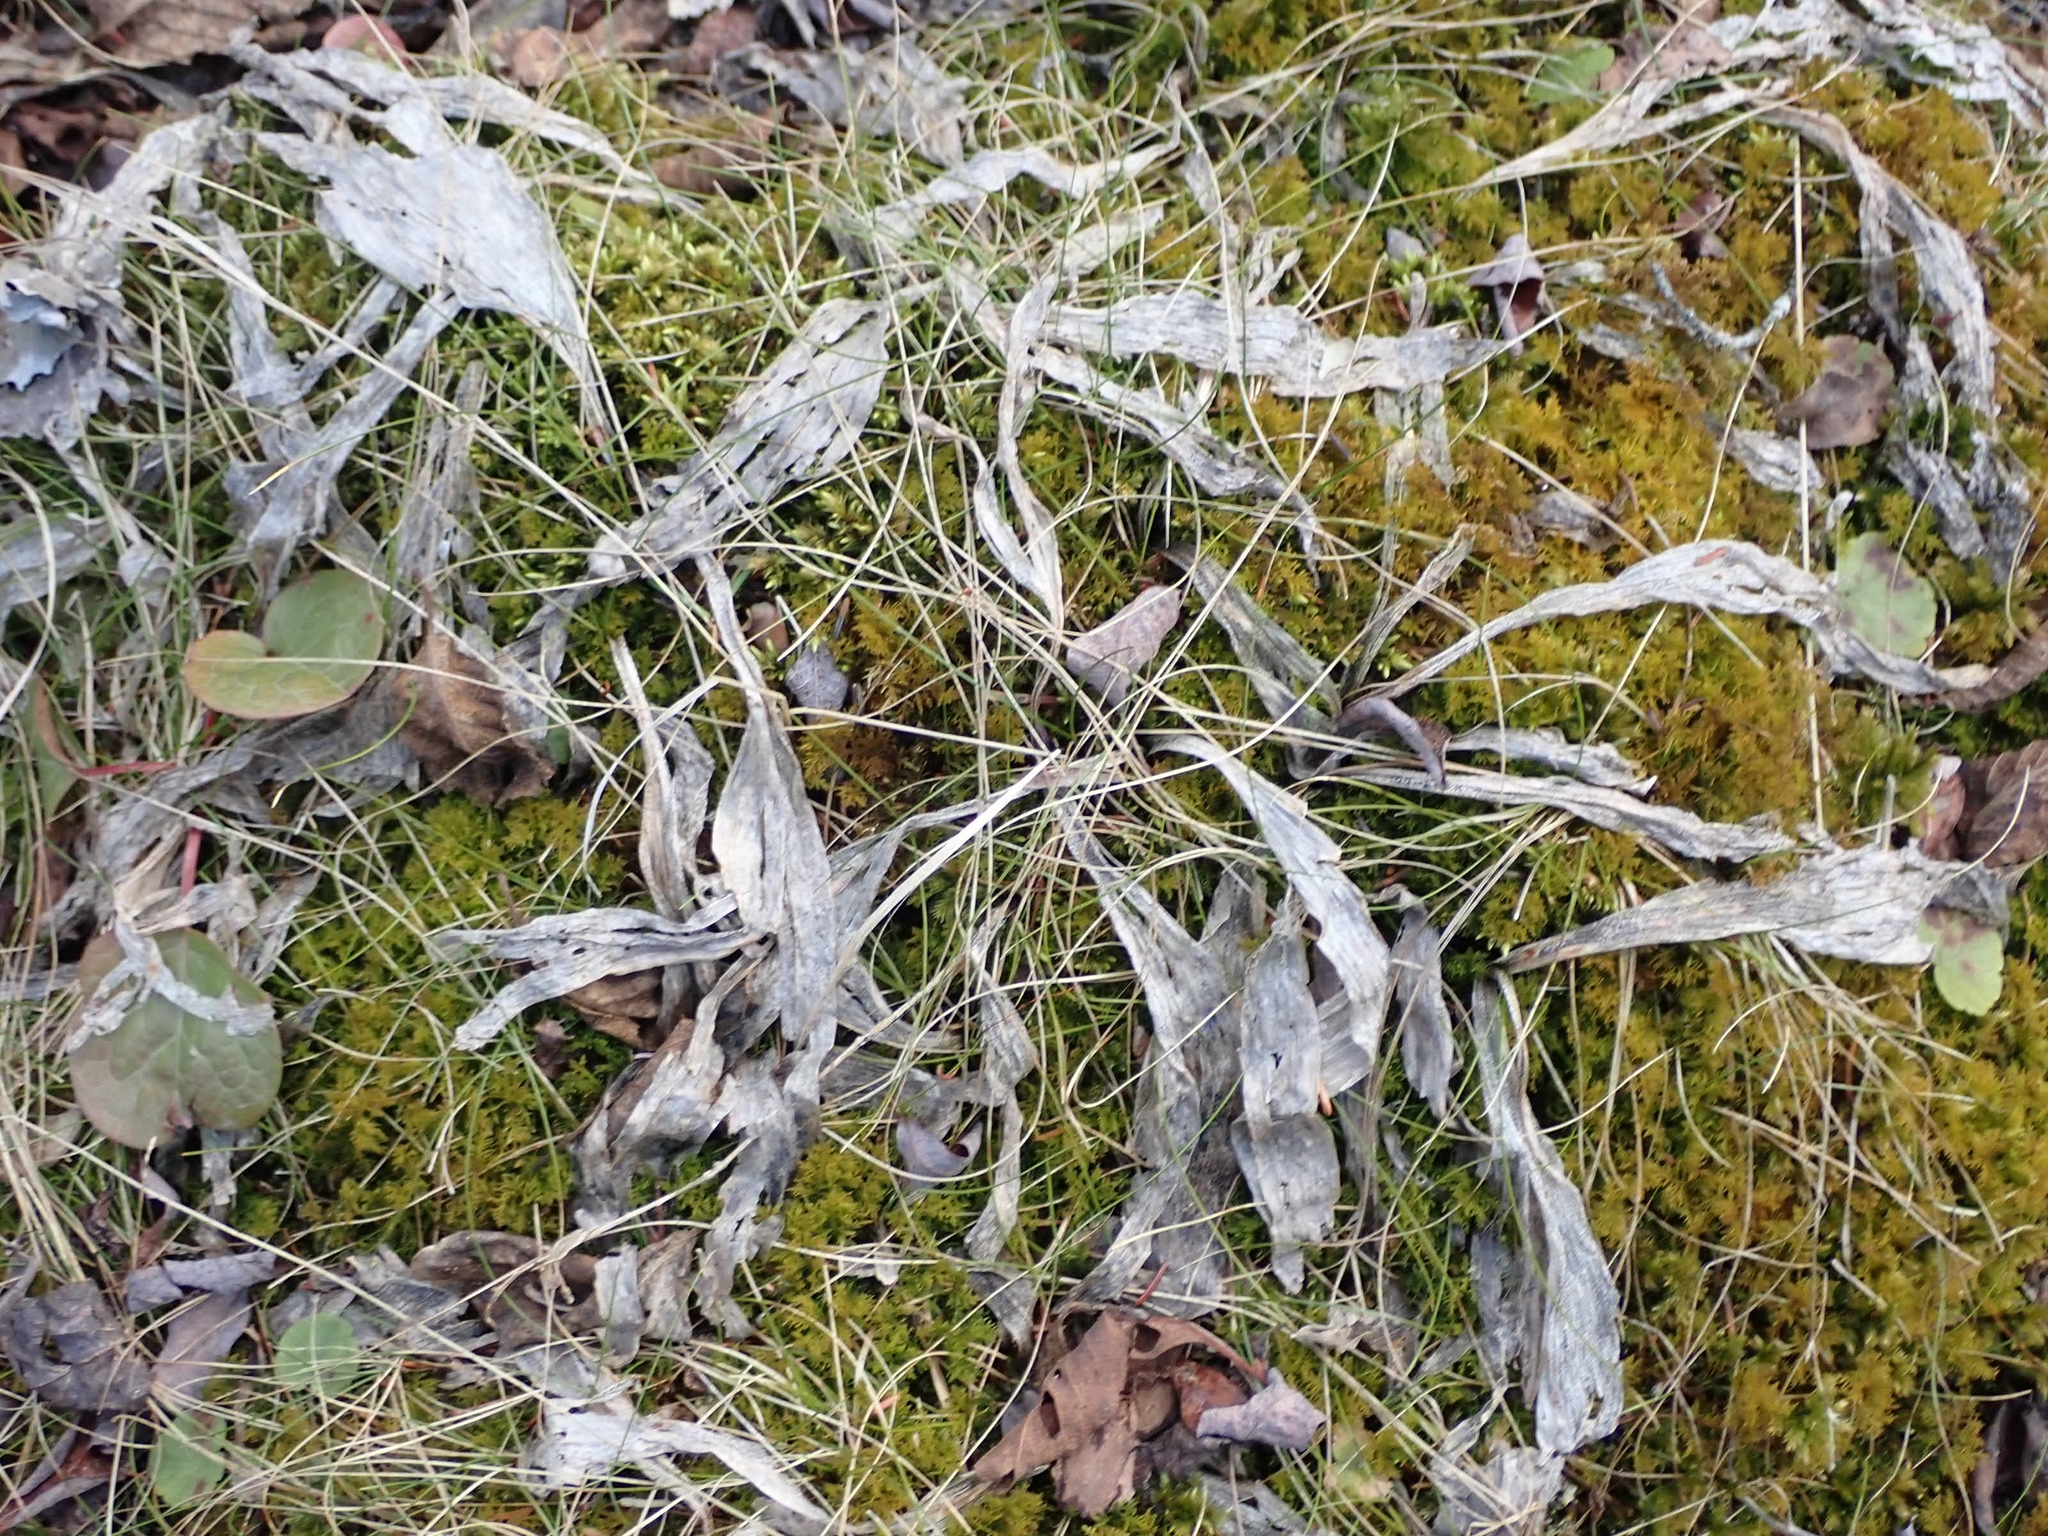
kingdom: Plantae
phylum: Tracheophyta
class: Liliopsida
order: Asparagales
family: Asparagaceae
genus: Maianthemum
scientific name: Maianthemum trifolium
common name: Swamp false solomon's seal
